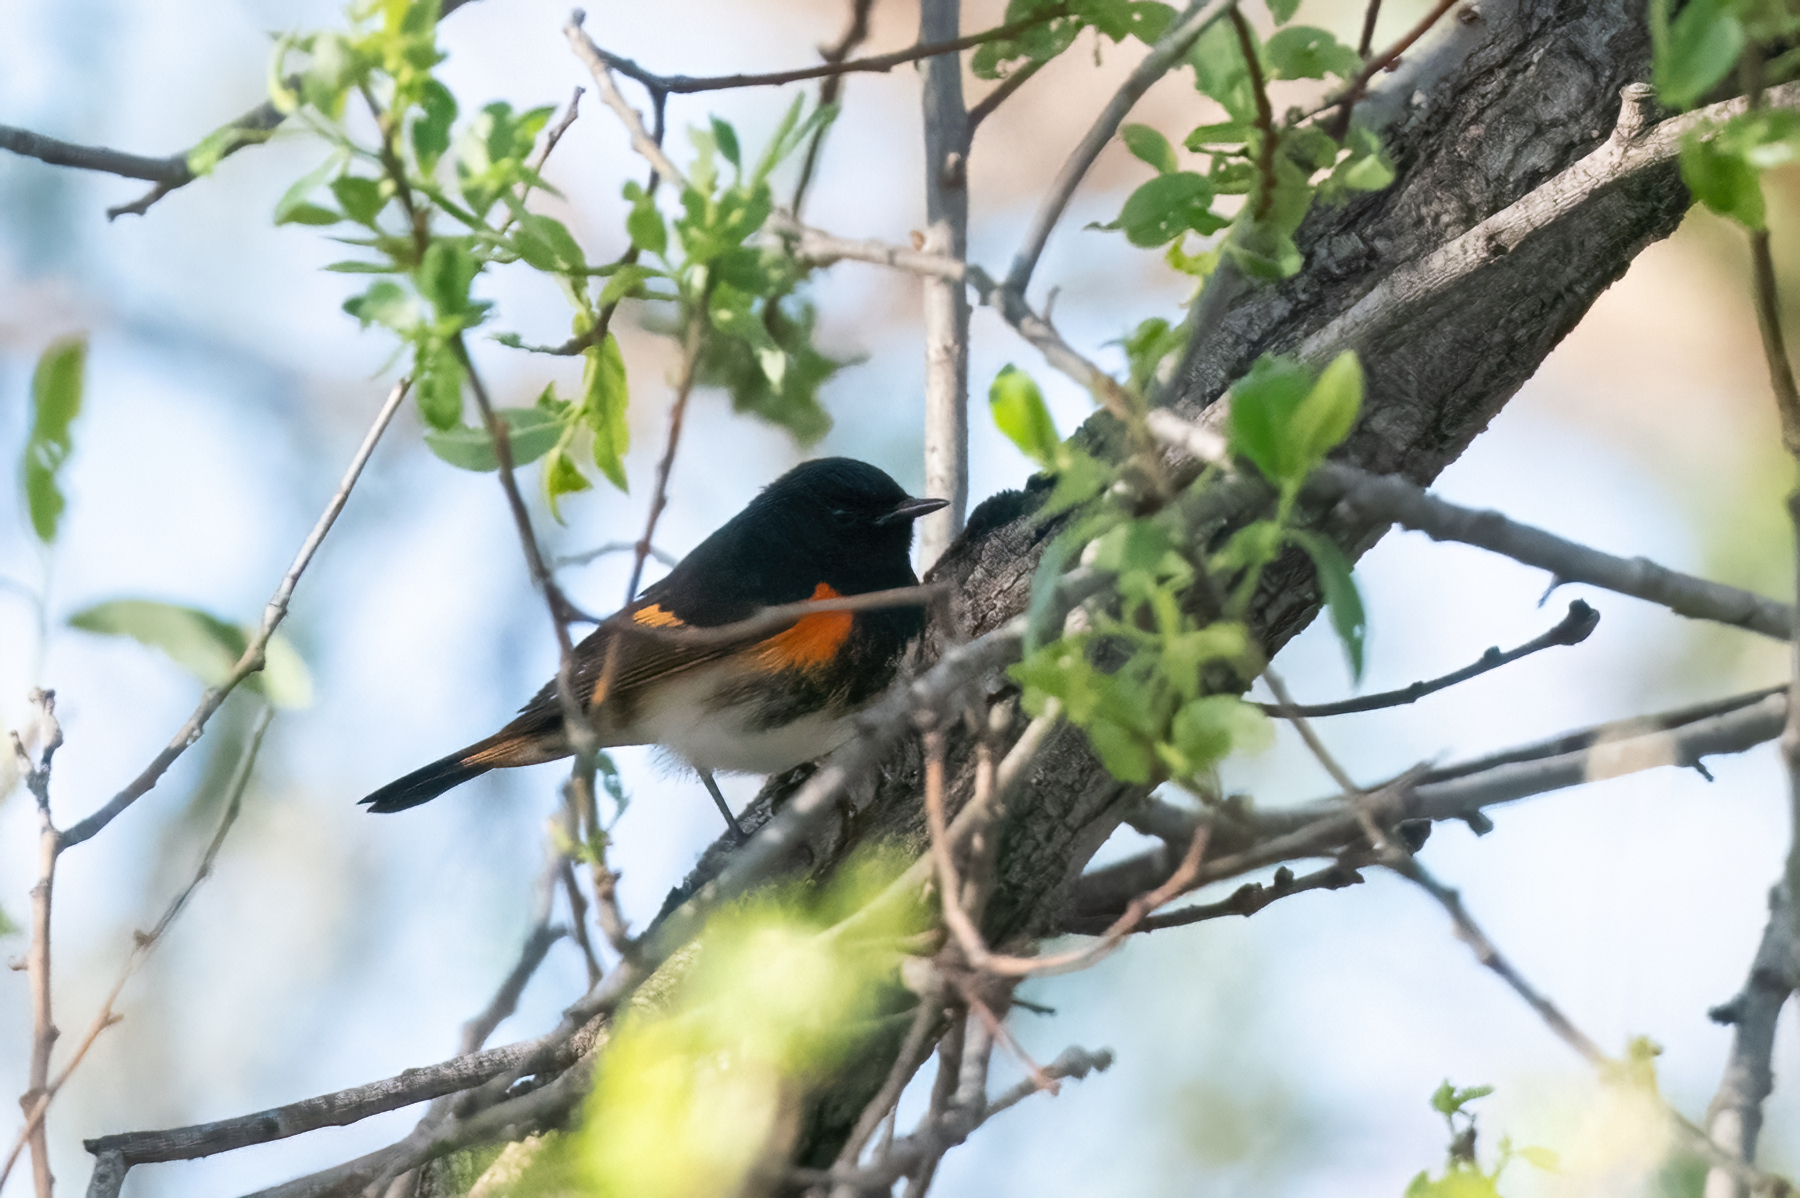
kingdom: Animalia
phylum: Chordata
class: Aves
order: Passeriformes
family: Parulidae
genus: Setophaga
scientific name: Setophaga ruticilla
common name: American redstart
